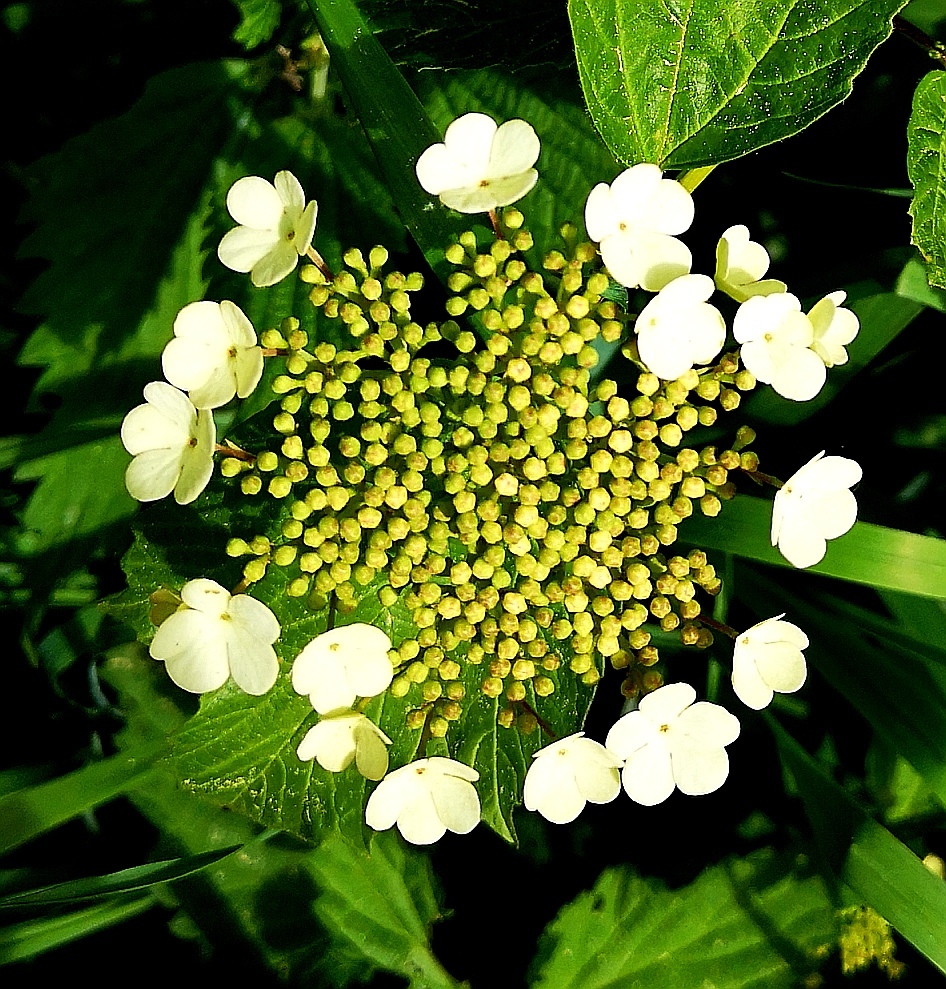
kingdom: Plantae
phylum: Tracheophyta
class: Magnoliopsida
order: Dipsacales
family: Viburnaceae
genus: Viburnum
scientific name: Viburnum opulus
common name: Guelder-rose
